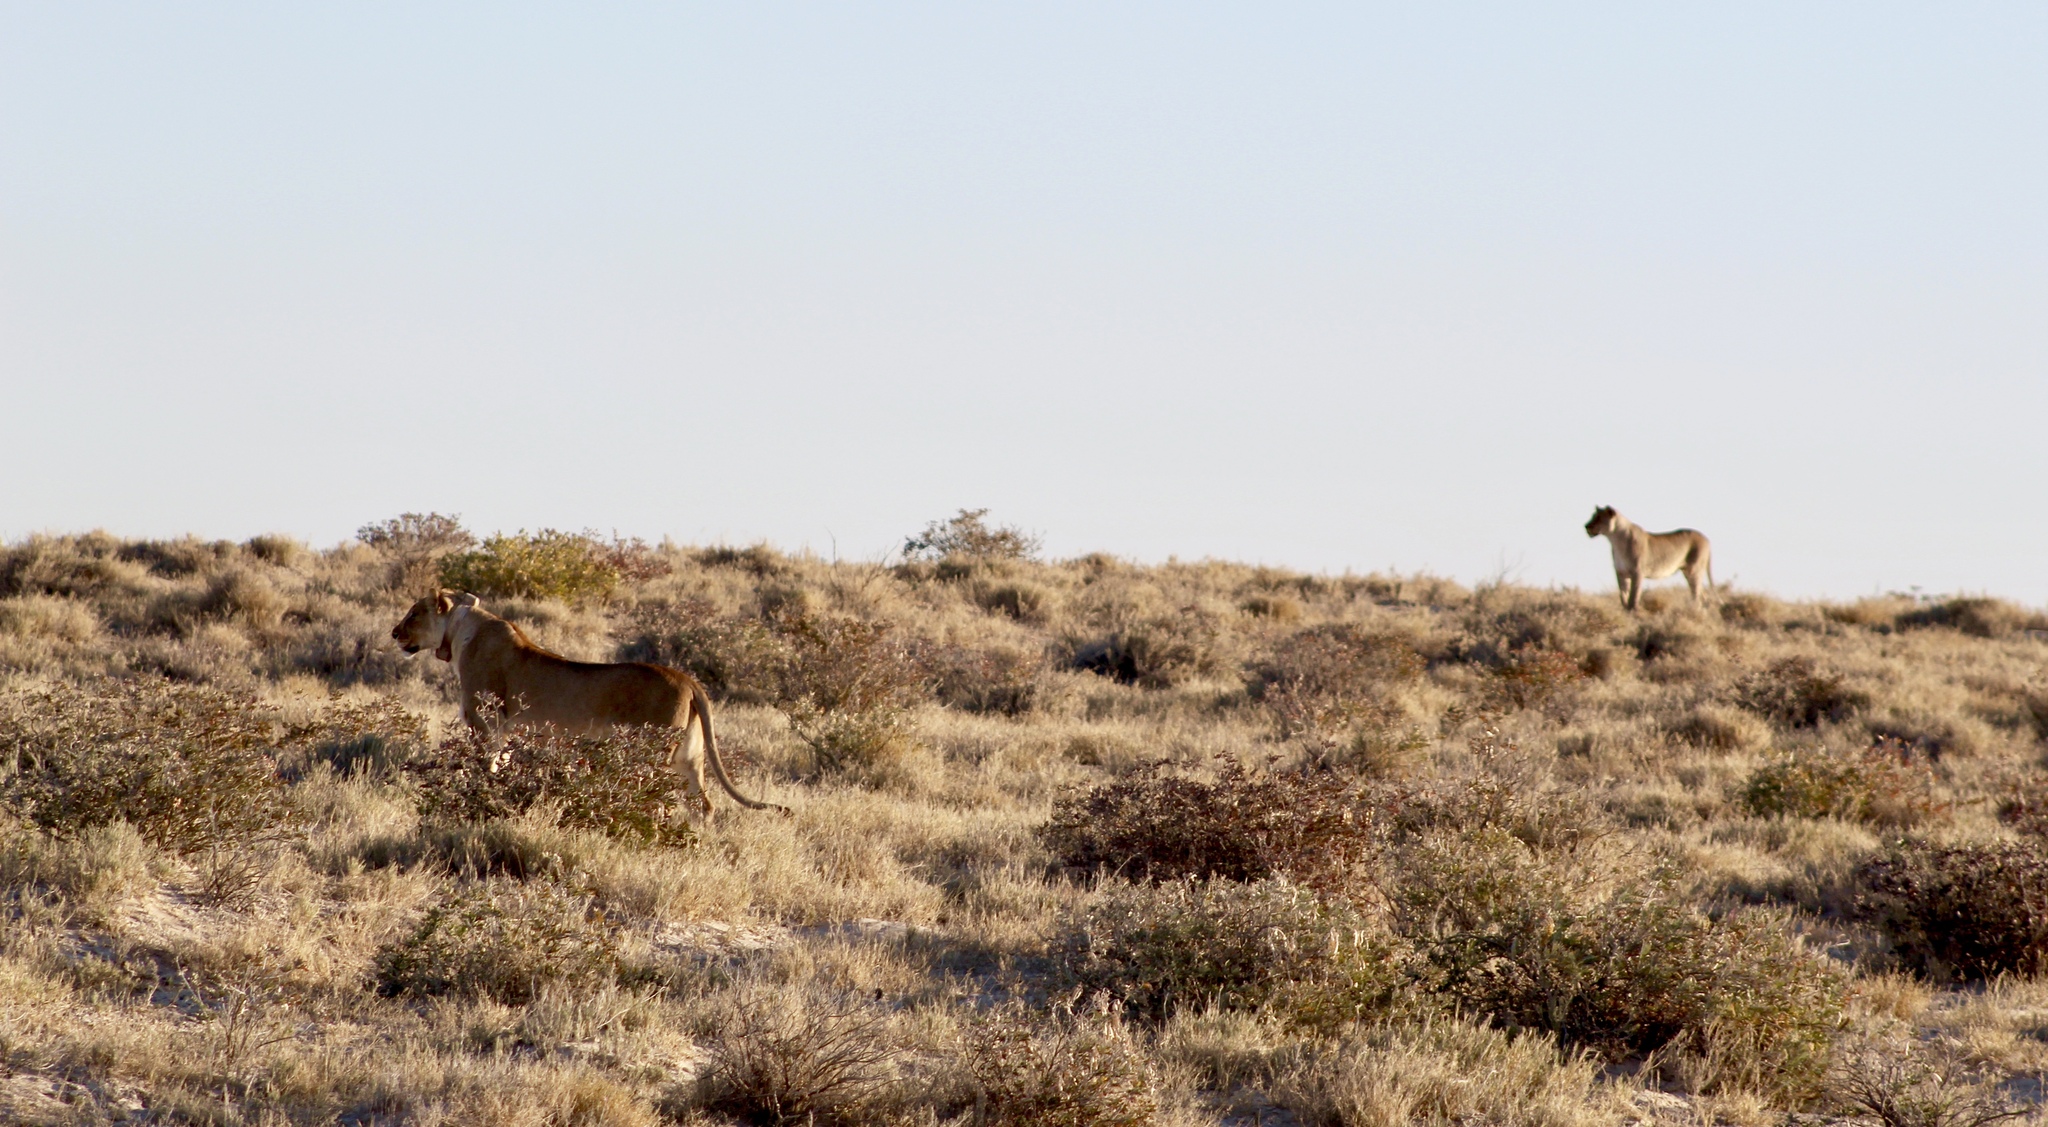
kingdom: Animalia
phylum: Chordata
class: Mammalia
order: Carnivora
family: Felidae
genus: Panthera
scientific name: Panthera leo
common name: Lion
